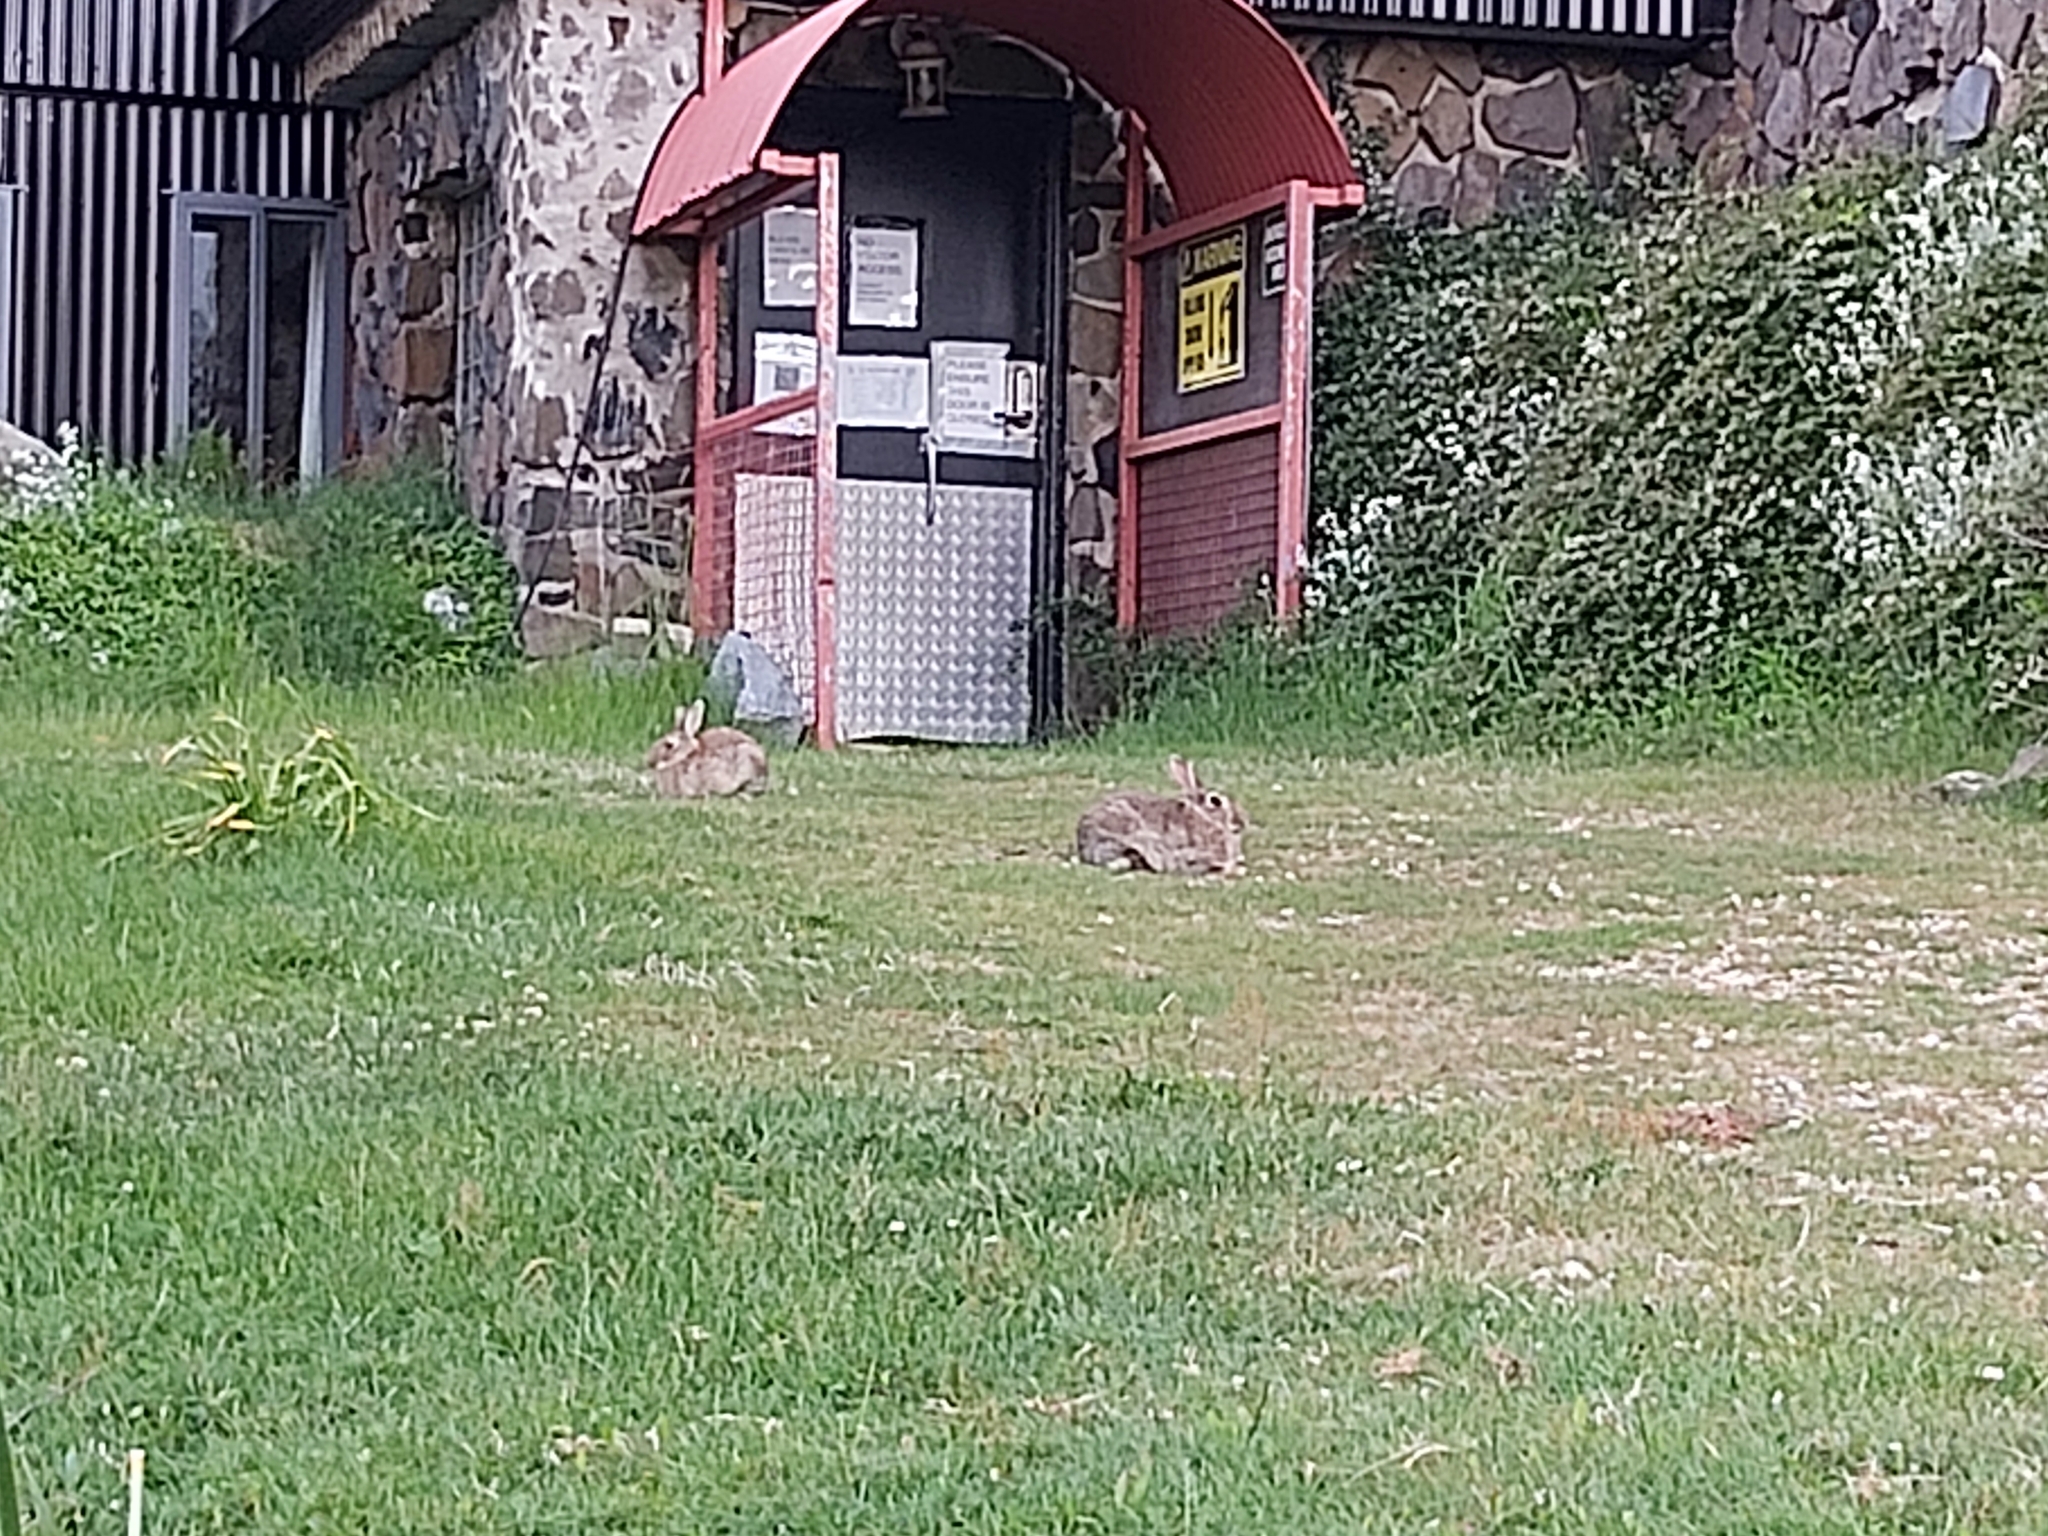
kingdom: Animalia
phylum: Chordata
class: Mammalia
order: Lagomorpha
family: Leporidae
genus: Oryctolagus
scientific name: Oryctolagus cuniculus
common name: European rabbit
